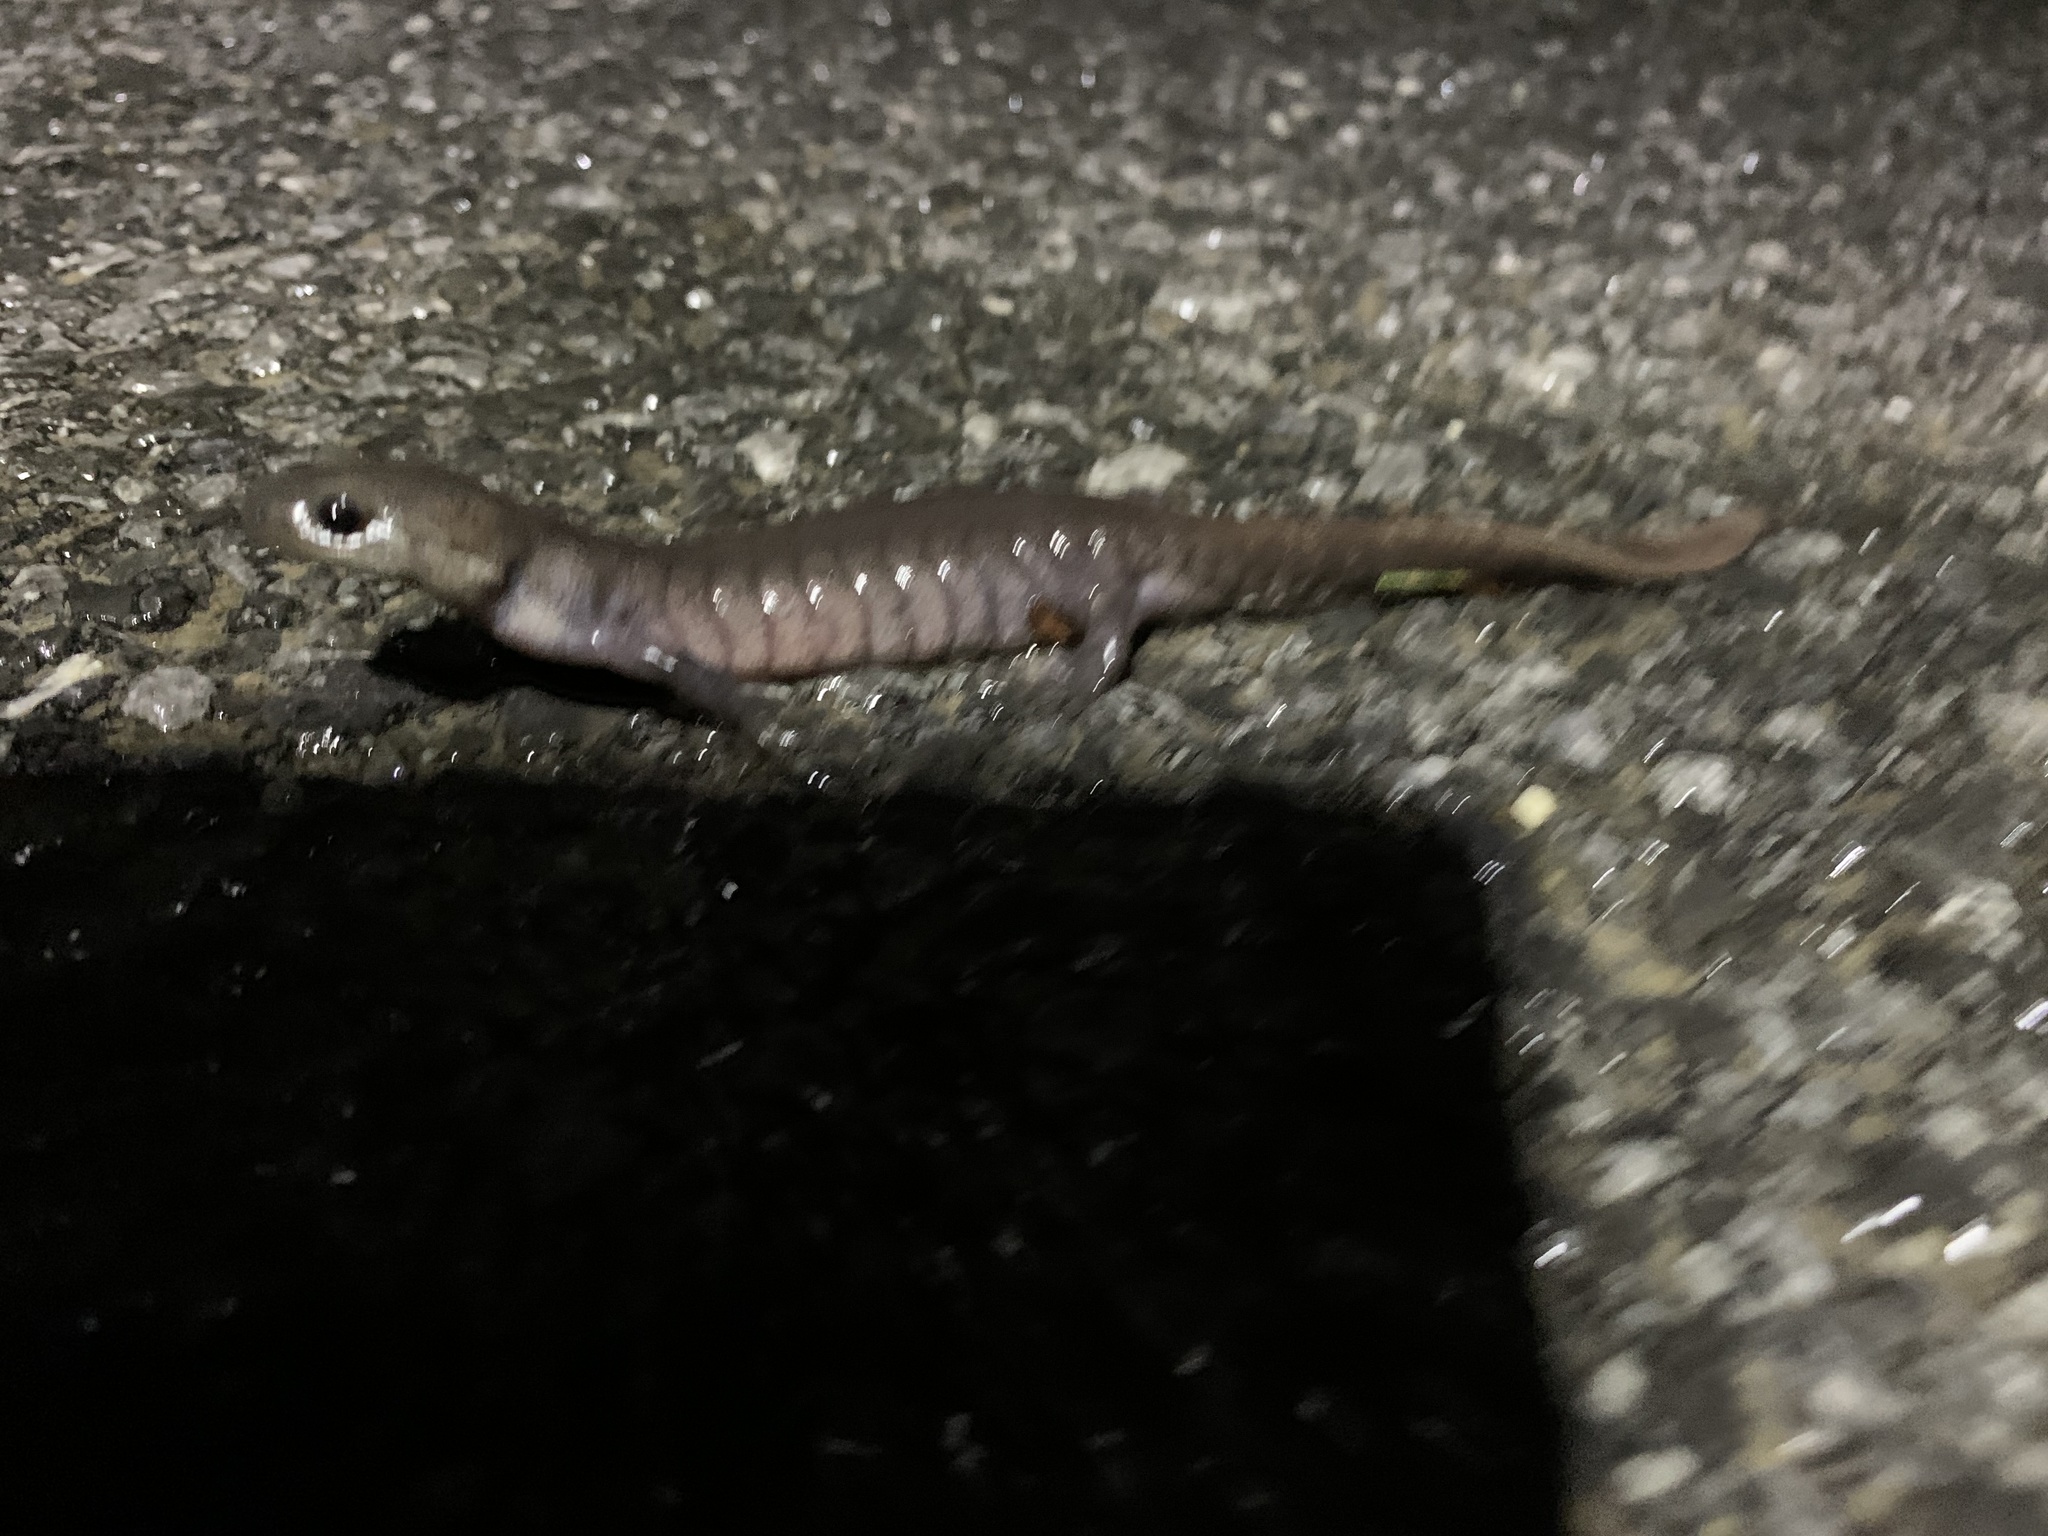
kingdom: Animalia
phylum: Chordata
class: Amphibia
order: Caudata
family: Ambystomatidae
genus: Ambystoma
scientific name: Ambystoma jeffersonianum
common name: Jefferson salamander
